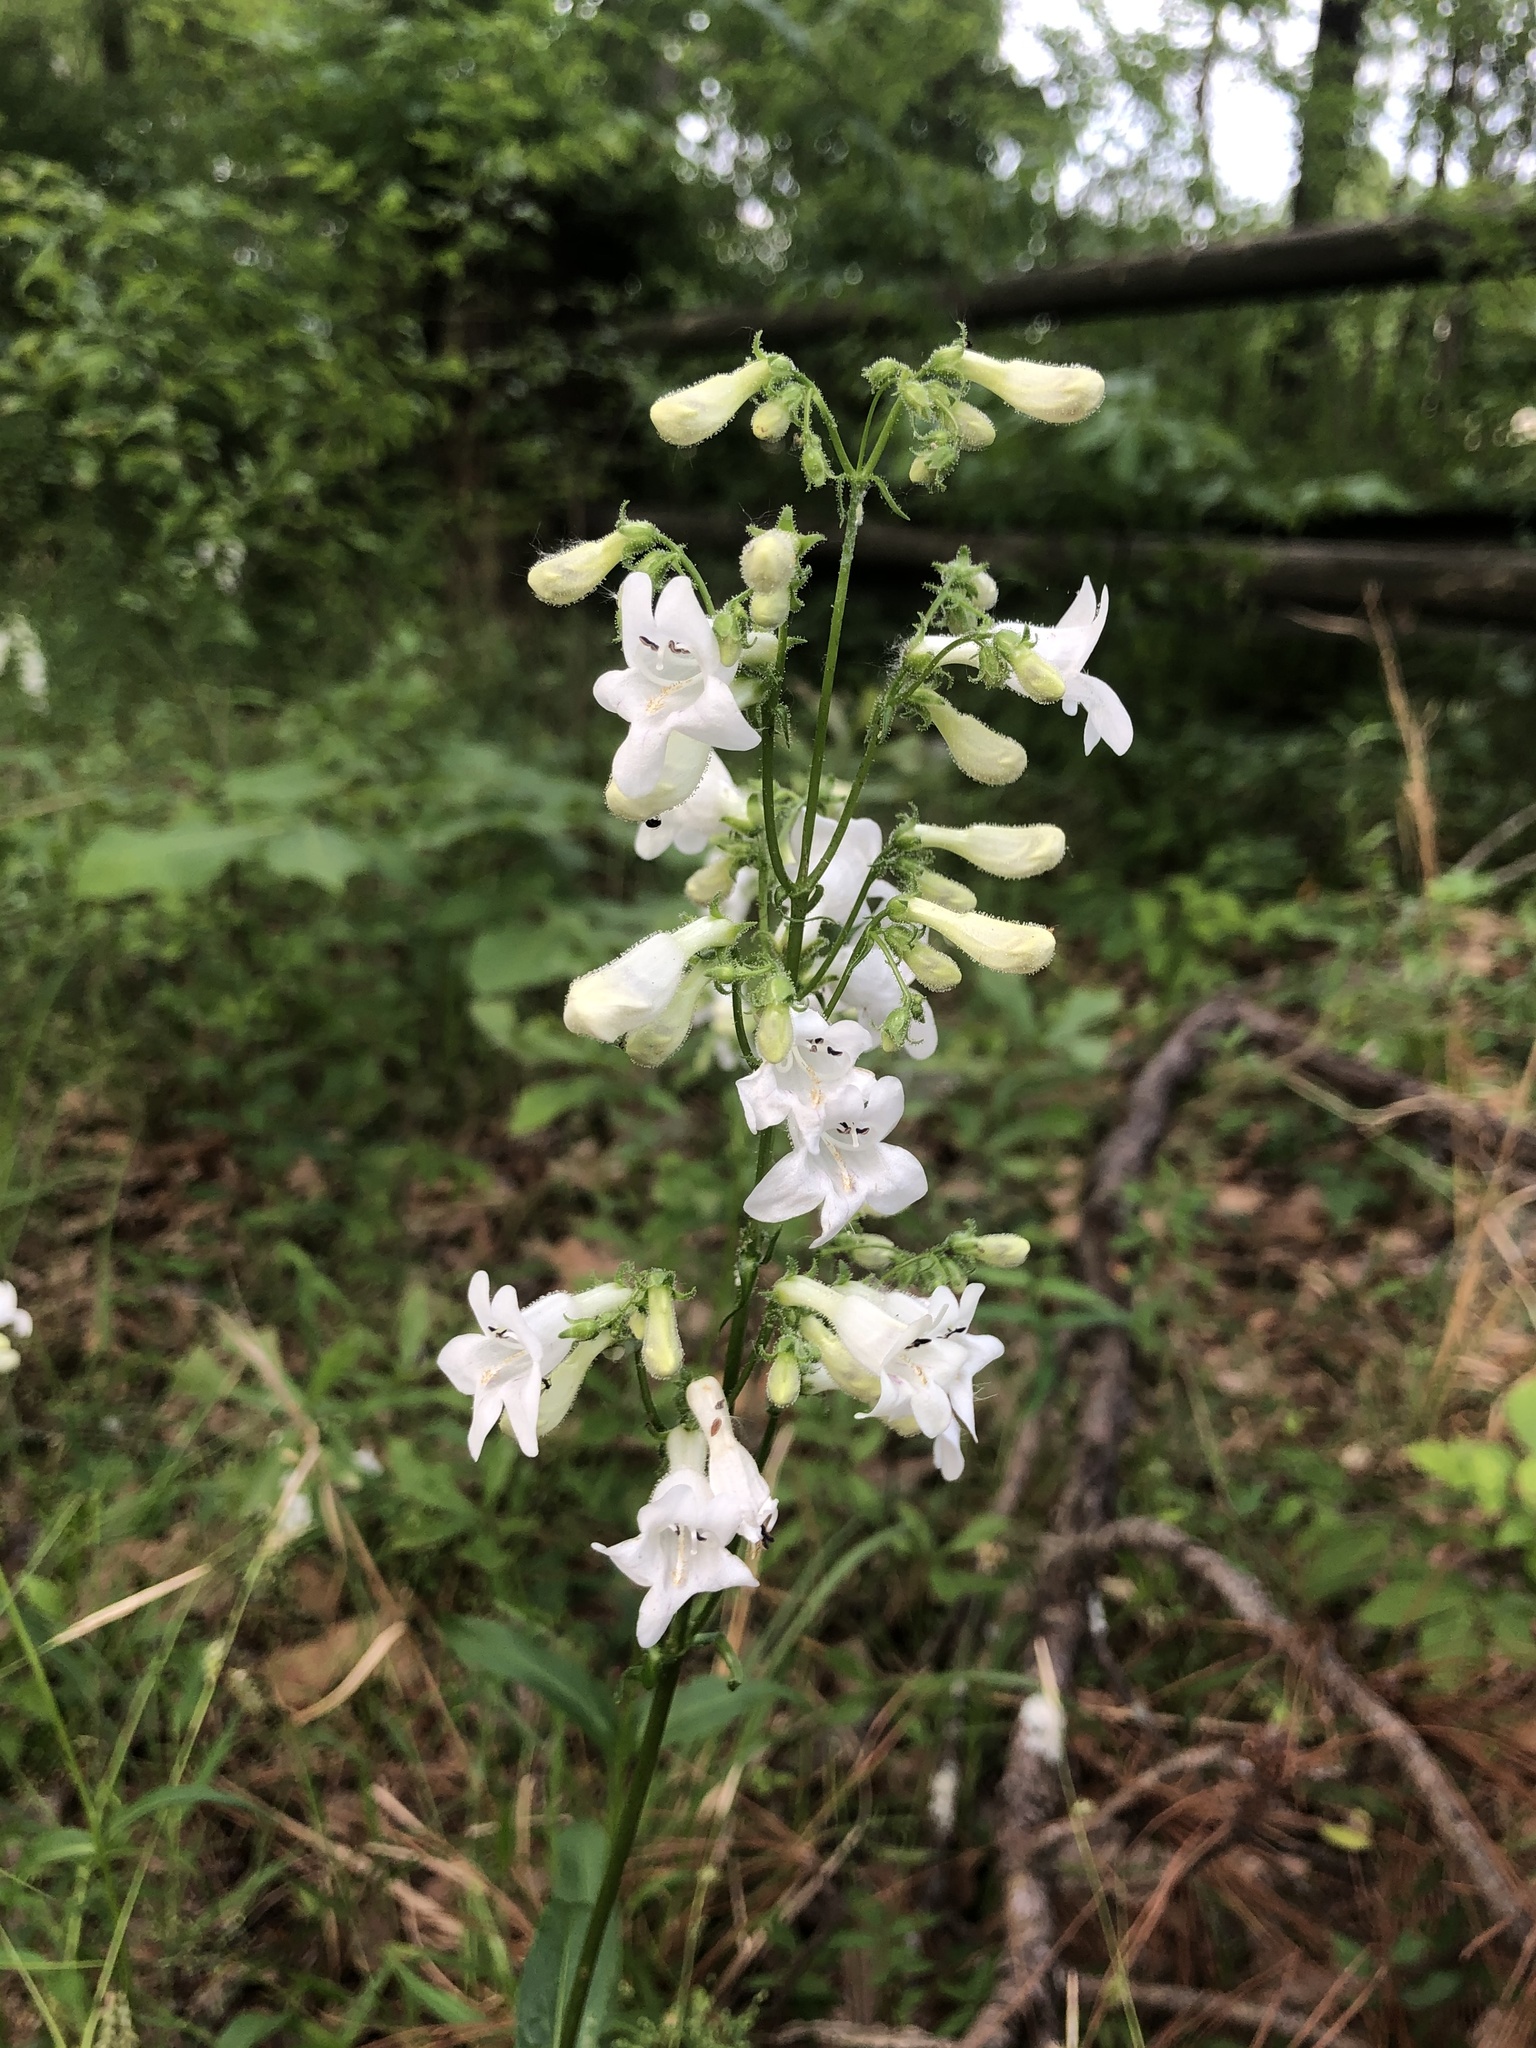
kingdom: Plantae
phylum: Tracheophyta
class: Magnoliopsida
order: Lamiales
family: Plantaginaceae
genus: Penstemon
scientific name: Penstemon digitalis
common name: Foxglove beardtongue
